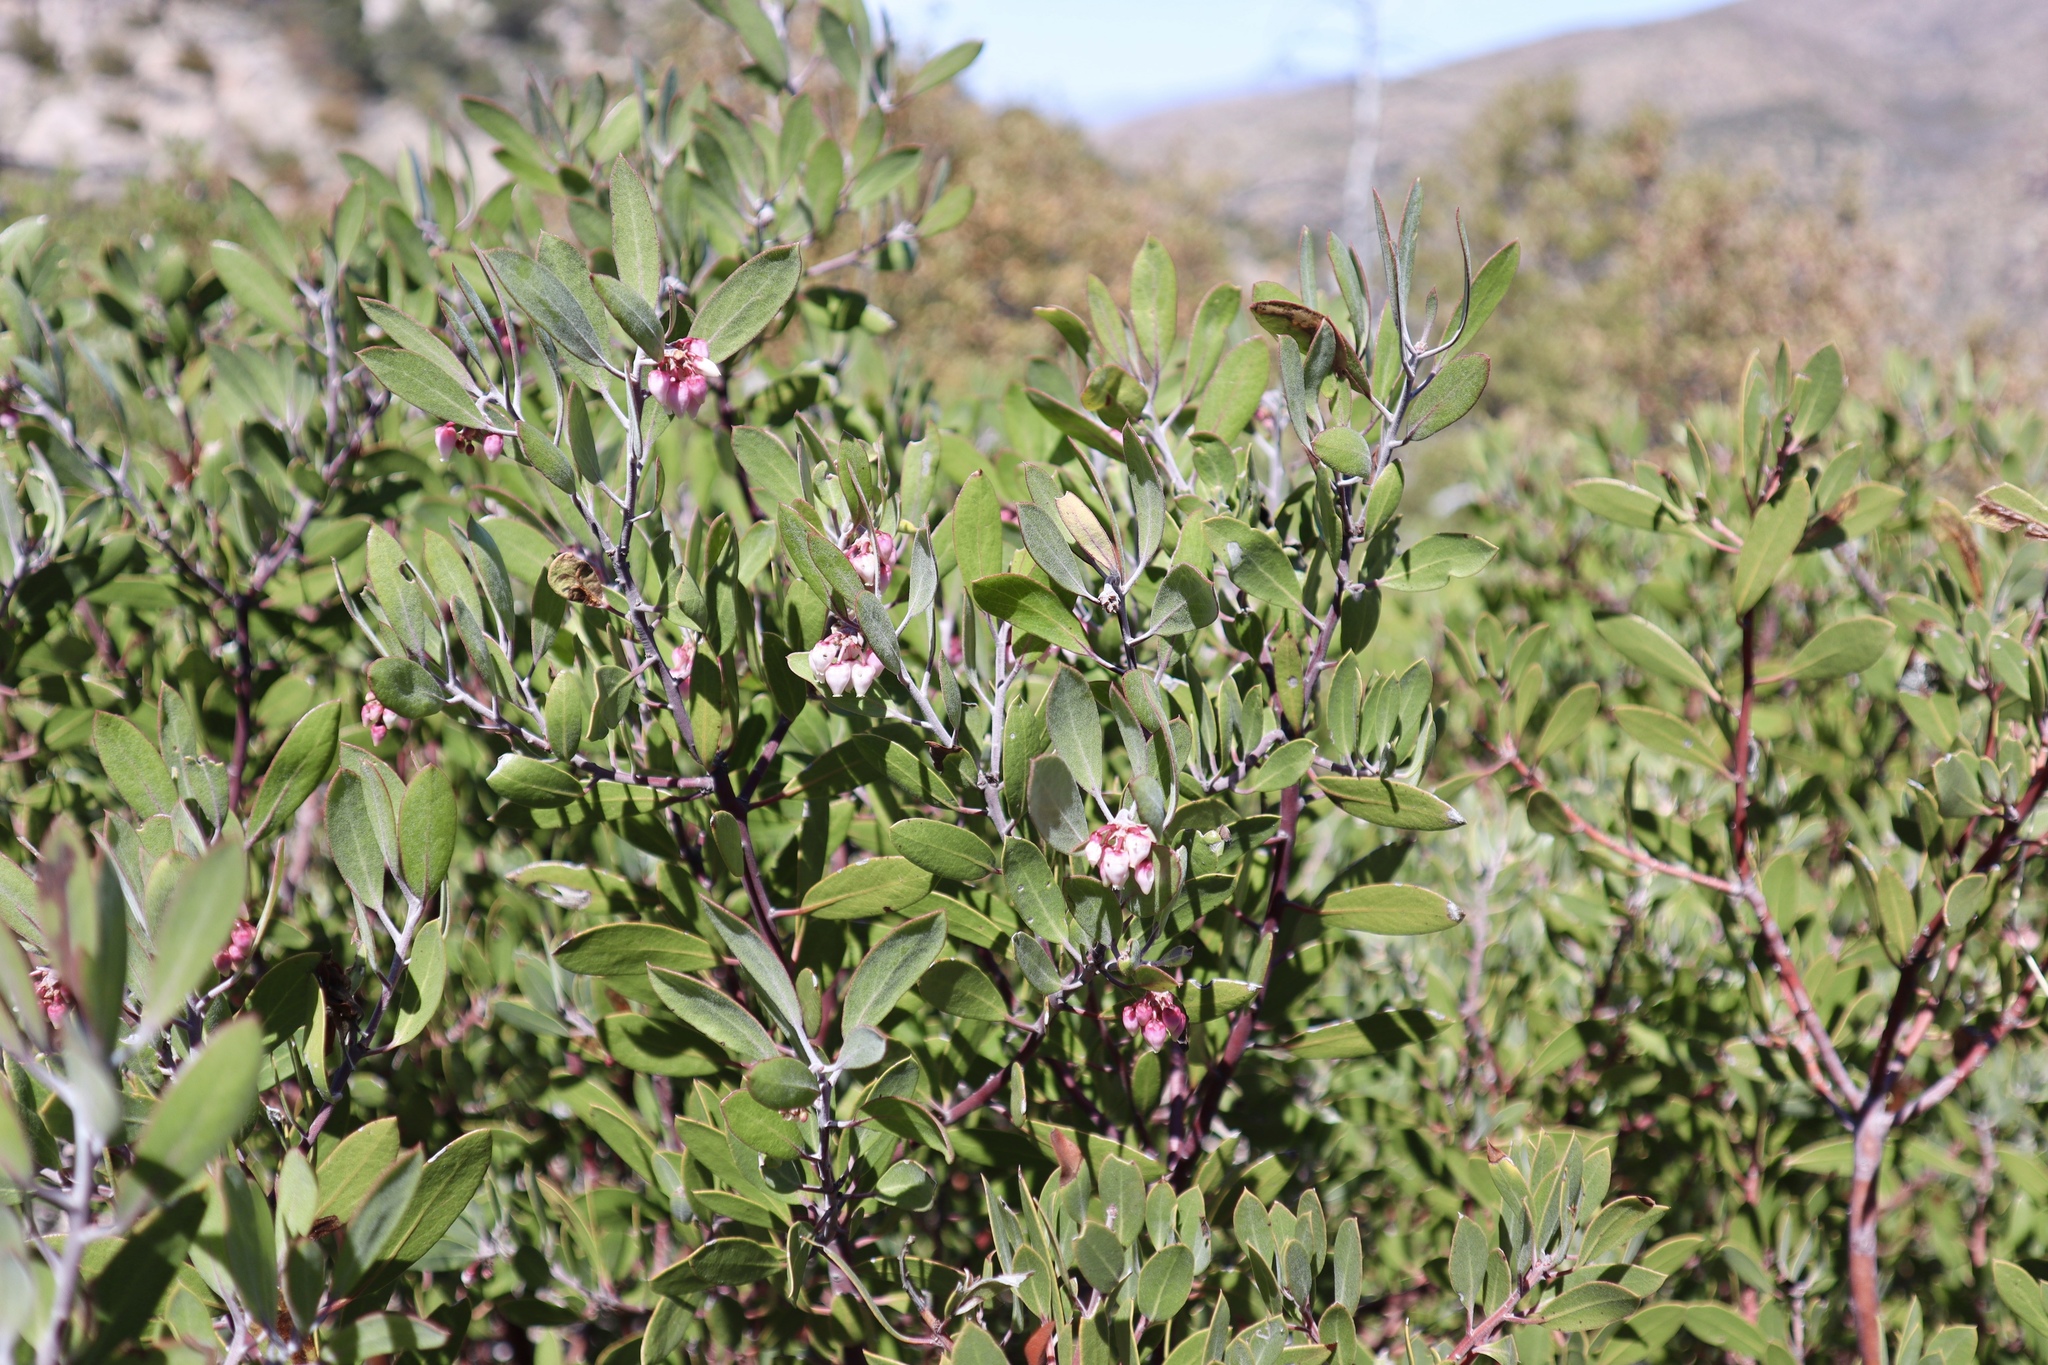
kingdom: Plantae
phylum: Tracheophyta
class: Magnoliopsida
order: Ericales
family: Ericaceae
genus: Arctostaphylos
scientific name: Arctostaphylos pungens
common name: Mexican manzanita
